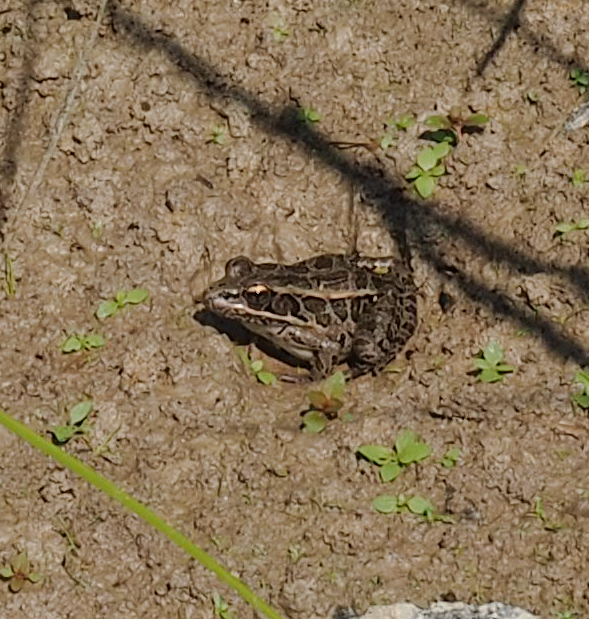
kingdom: Animalia
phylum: Chordata
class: Amphibia
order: Anura
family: Ranidae
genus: Lithobates
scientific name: Lithobates palustris
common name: Pickerel frog
